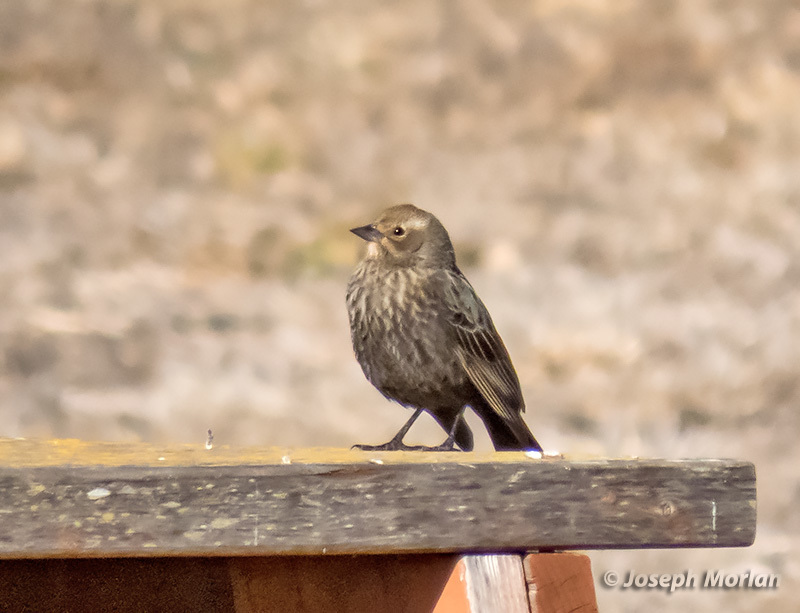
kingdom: Animalia
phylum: Chordata
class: Aves
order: Passeriformes
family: Icteridae
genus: Agelaius
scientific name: Agelaius phoeniceus
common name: Red-winged blackbird
